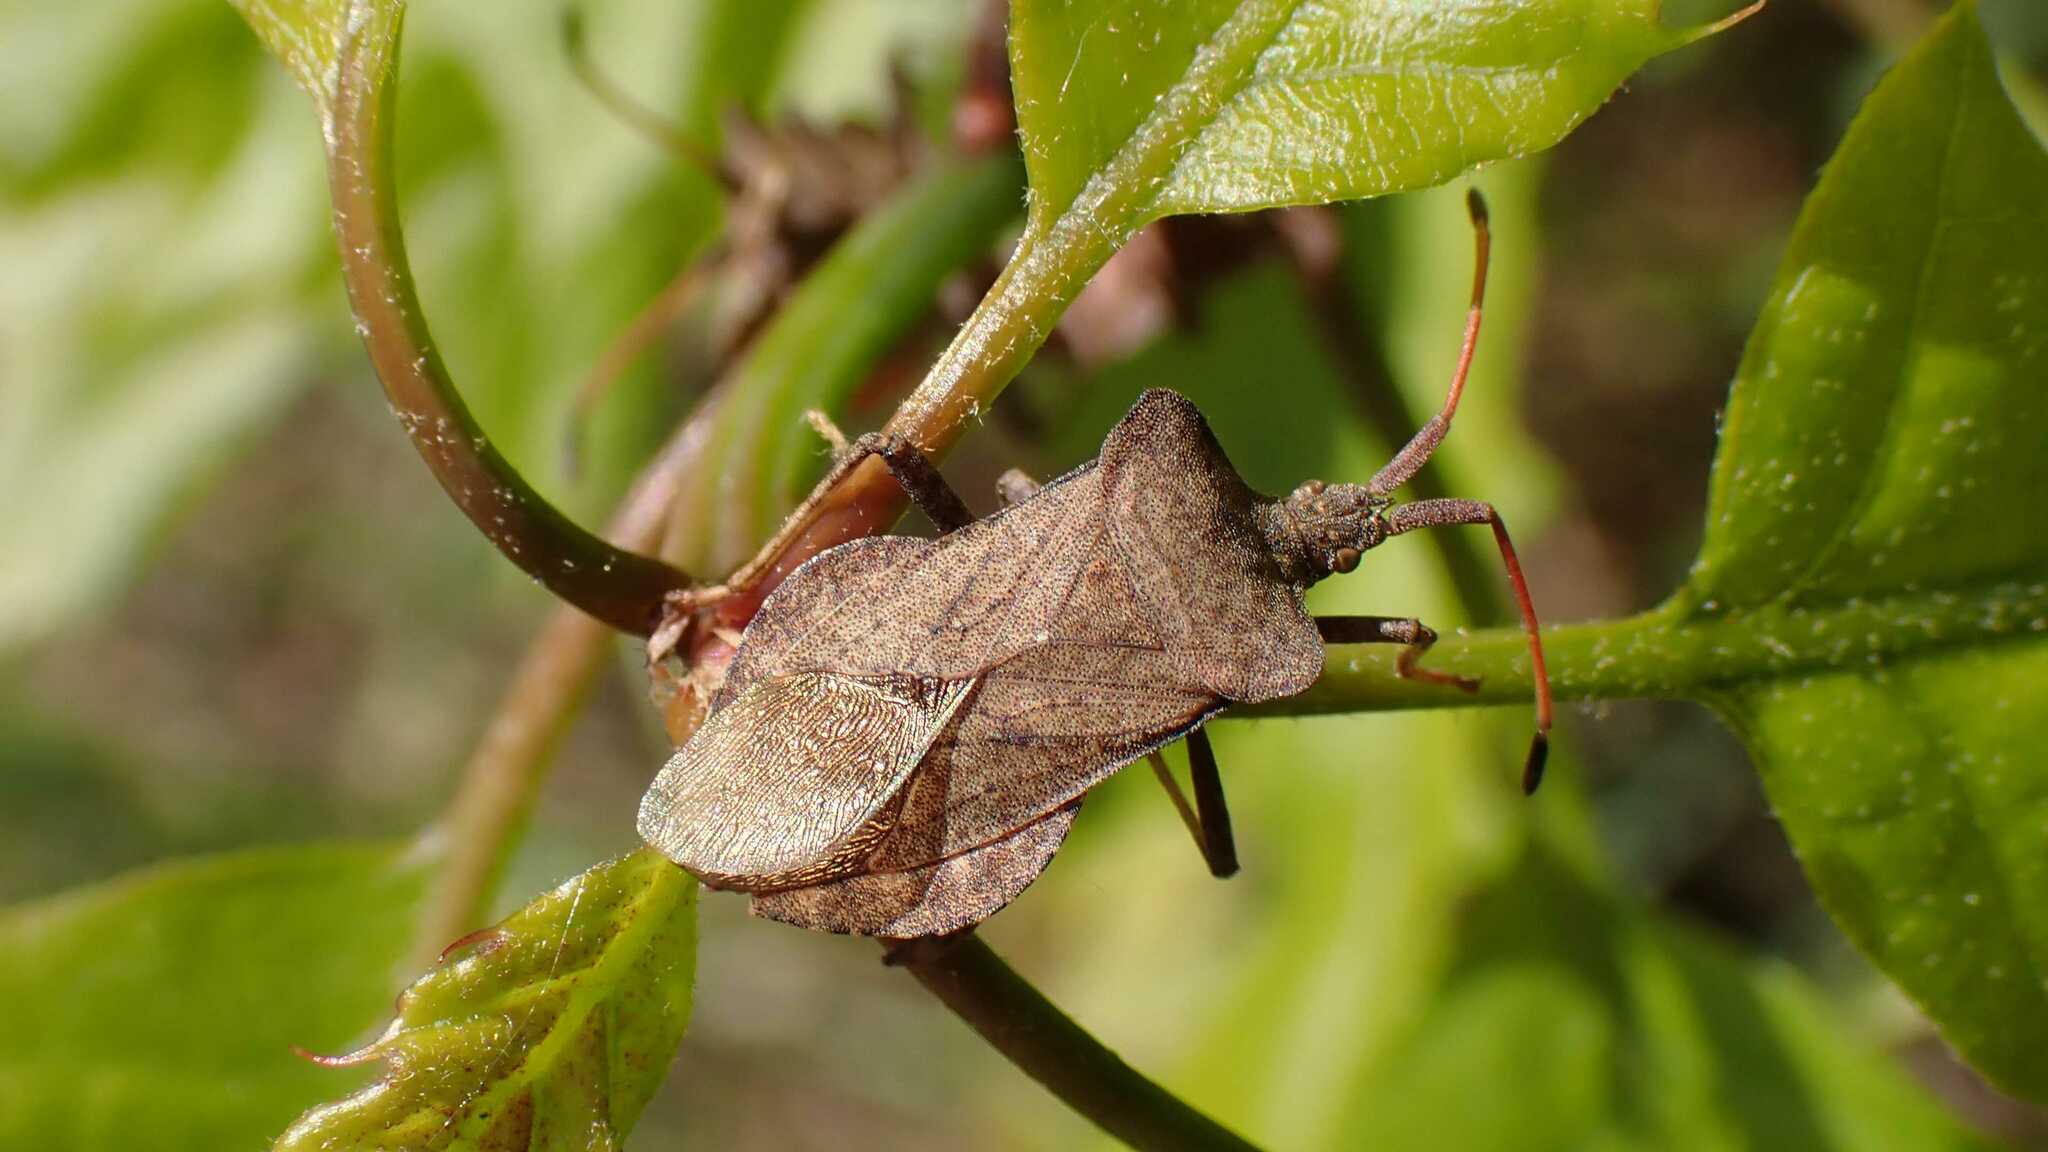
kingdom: Animalia
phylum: Arthropoda
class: Insecta
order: Hemiptera
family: Coreidae
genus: Coreus
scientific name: Coreus marginatus
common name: Dock bug
